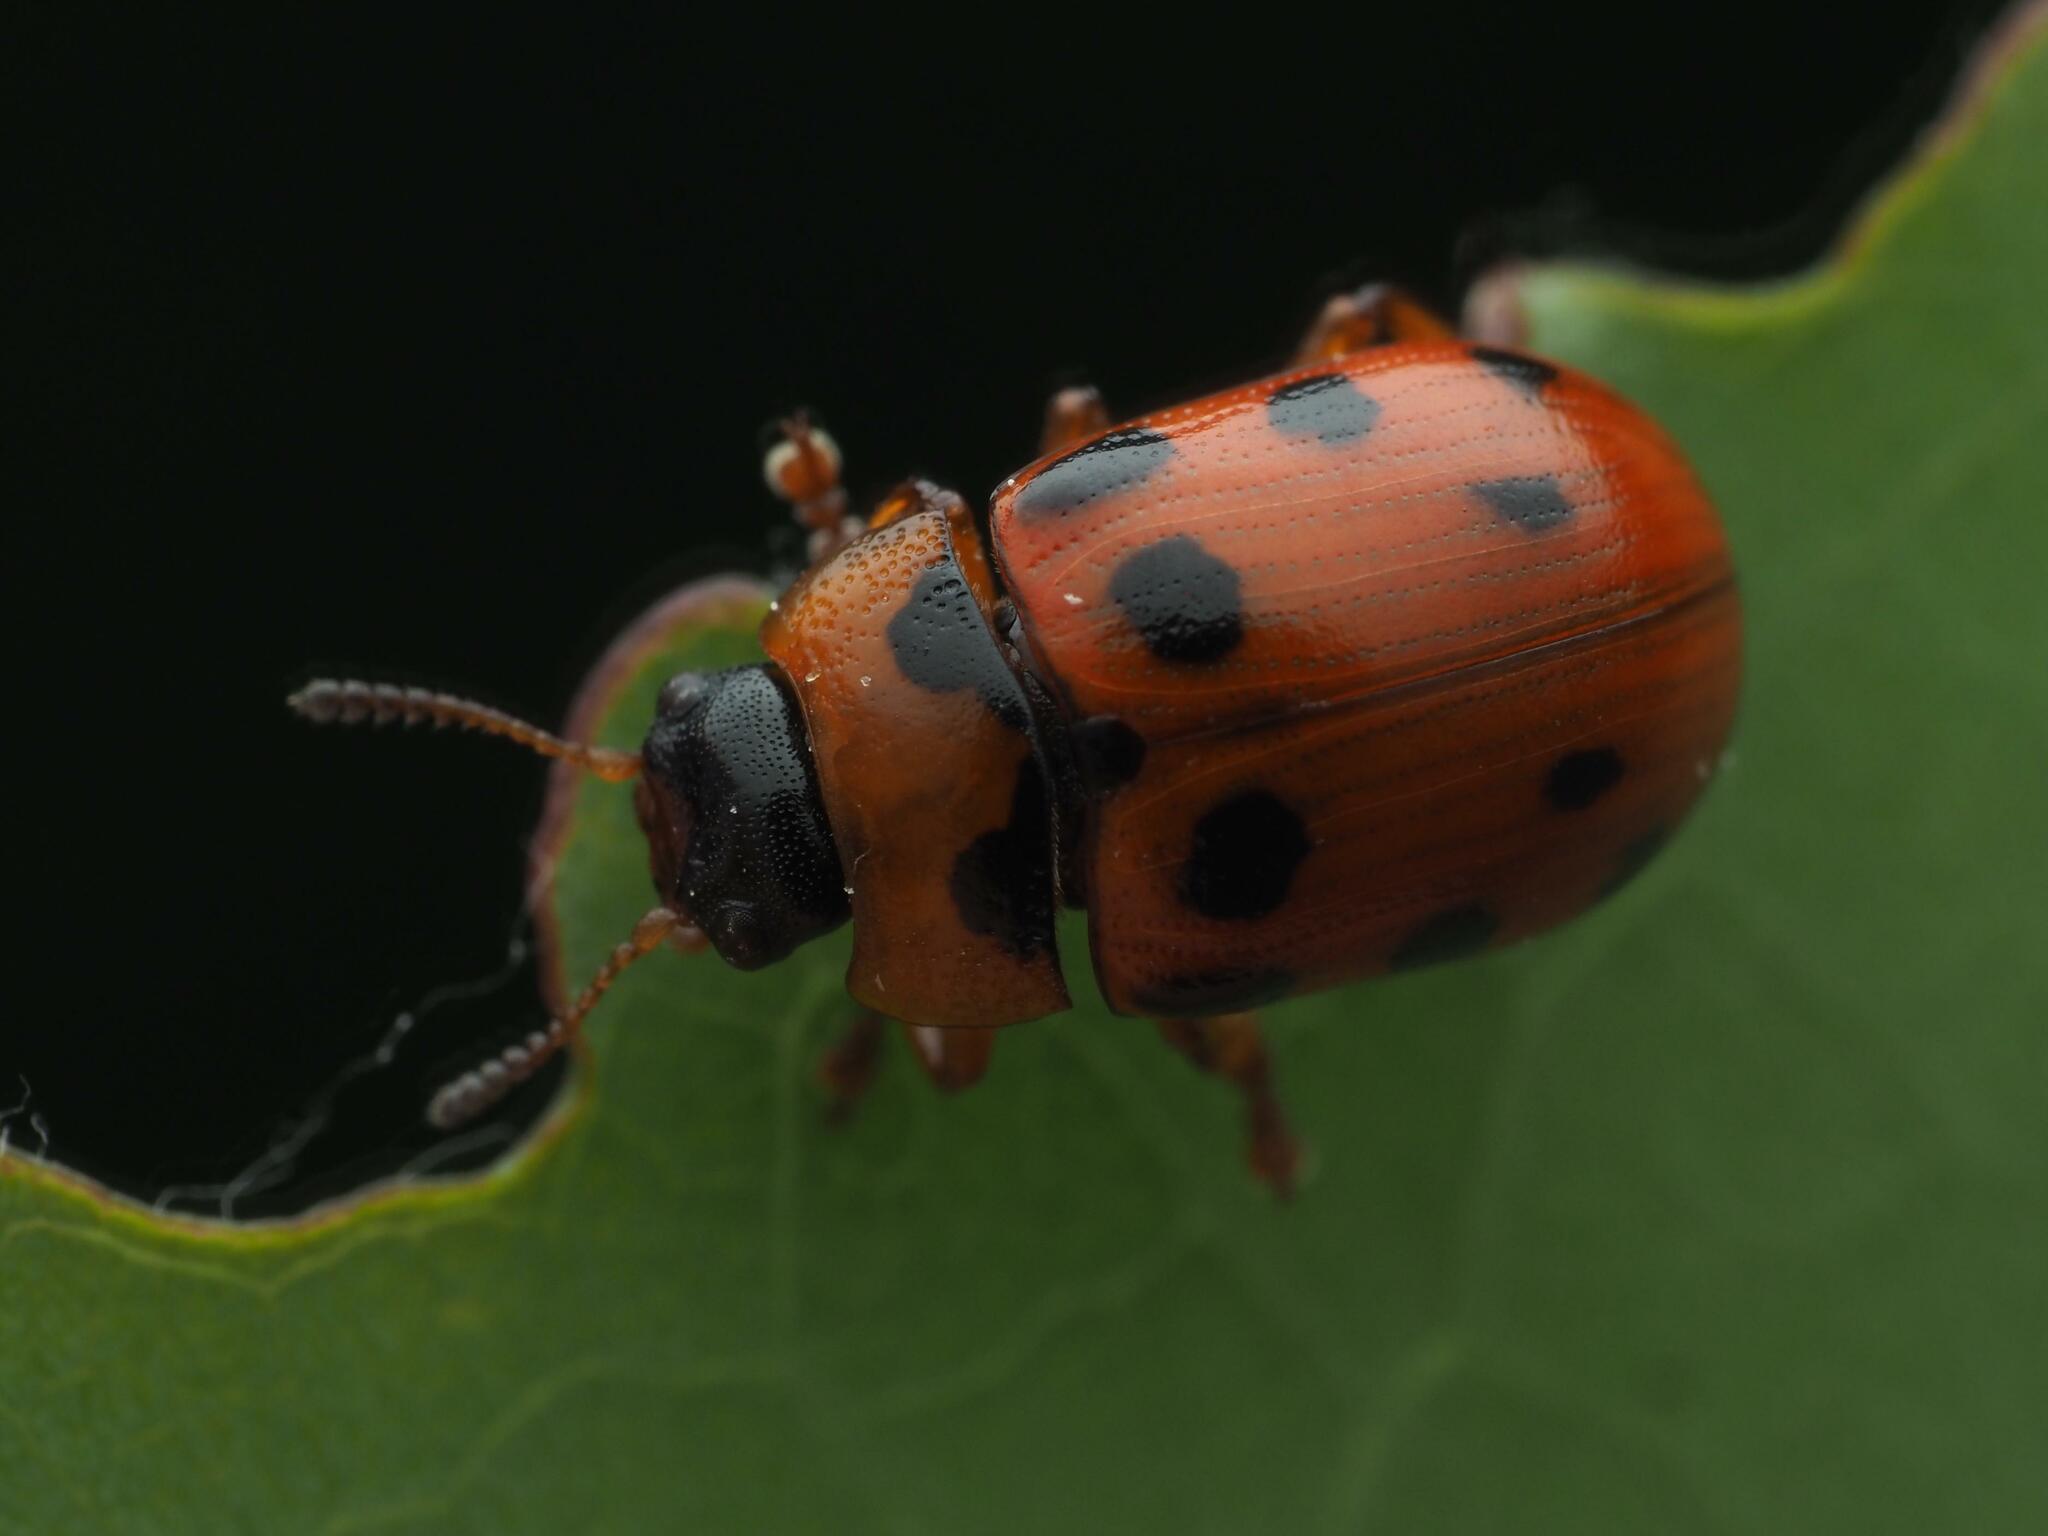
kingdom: Animalia
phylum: Arthropoda
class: Insecta
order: Coleoptera
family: Chrysomelidae
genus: Gonioctena
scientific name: Gonioctena decemnotata
